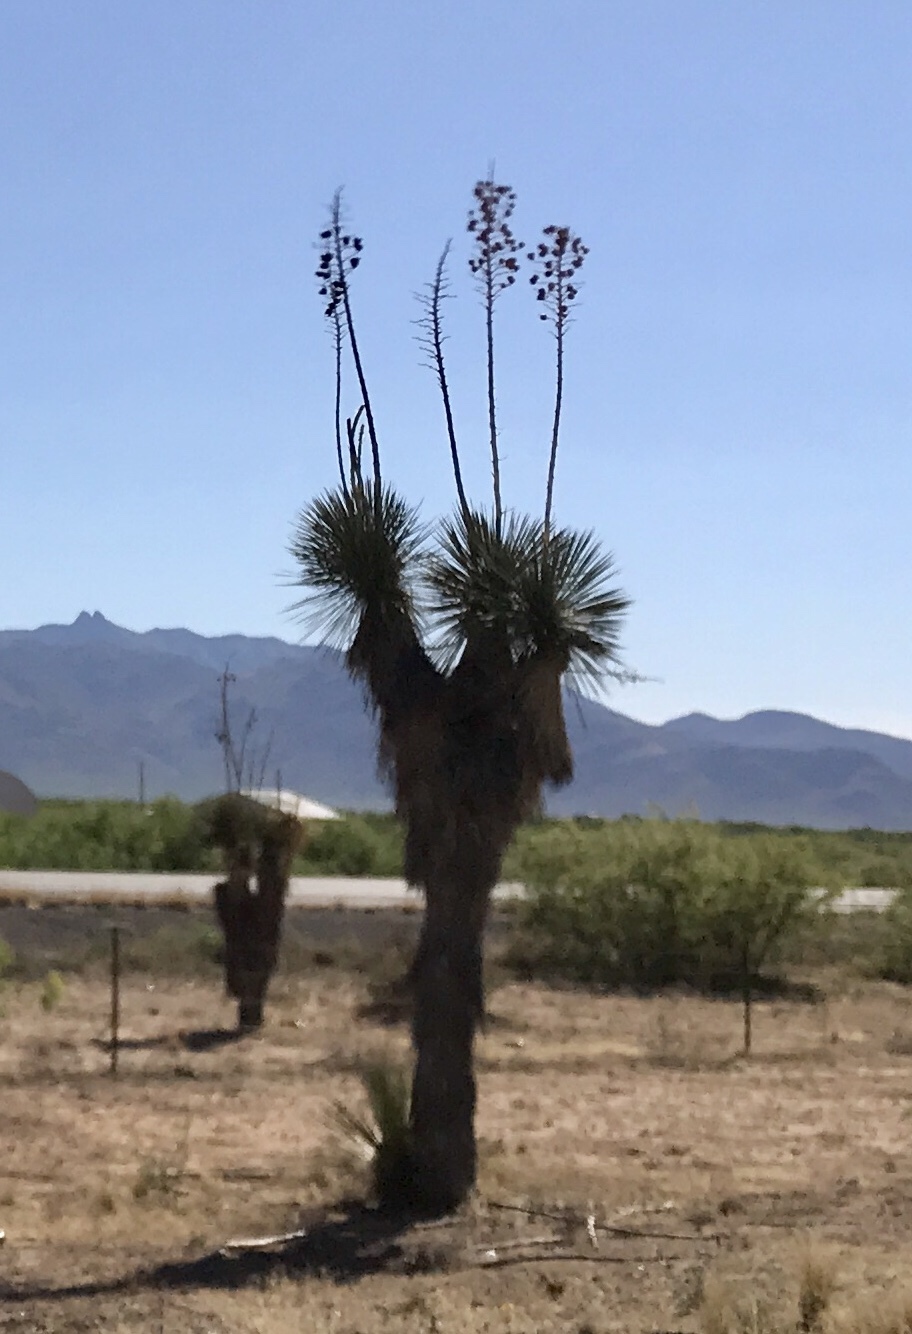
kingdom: Plantae
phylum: Tracheophyta
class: Liliopsida
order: Asparagales
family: Asparagaceae
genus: Yucca
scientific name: Yucca elata
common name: Palmella
